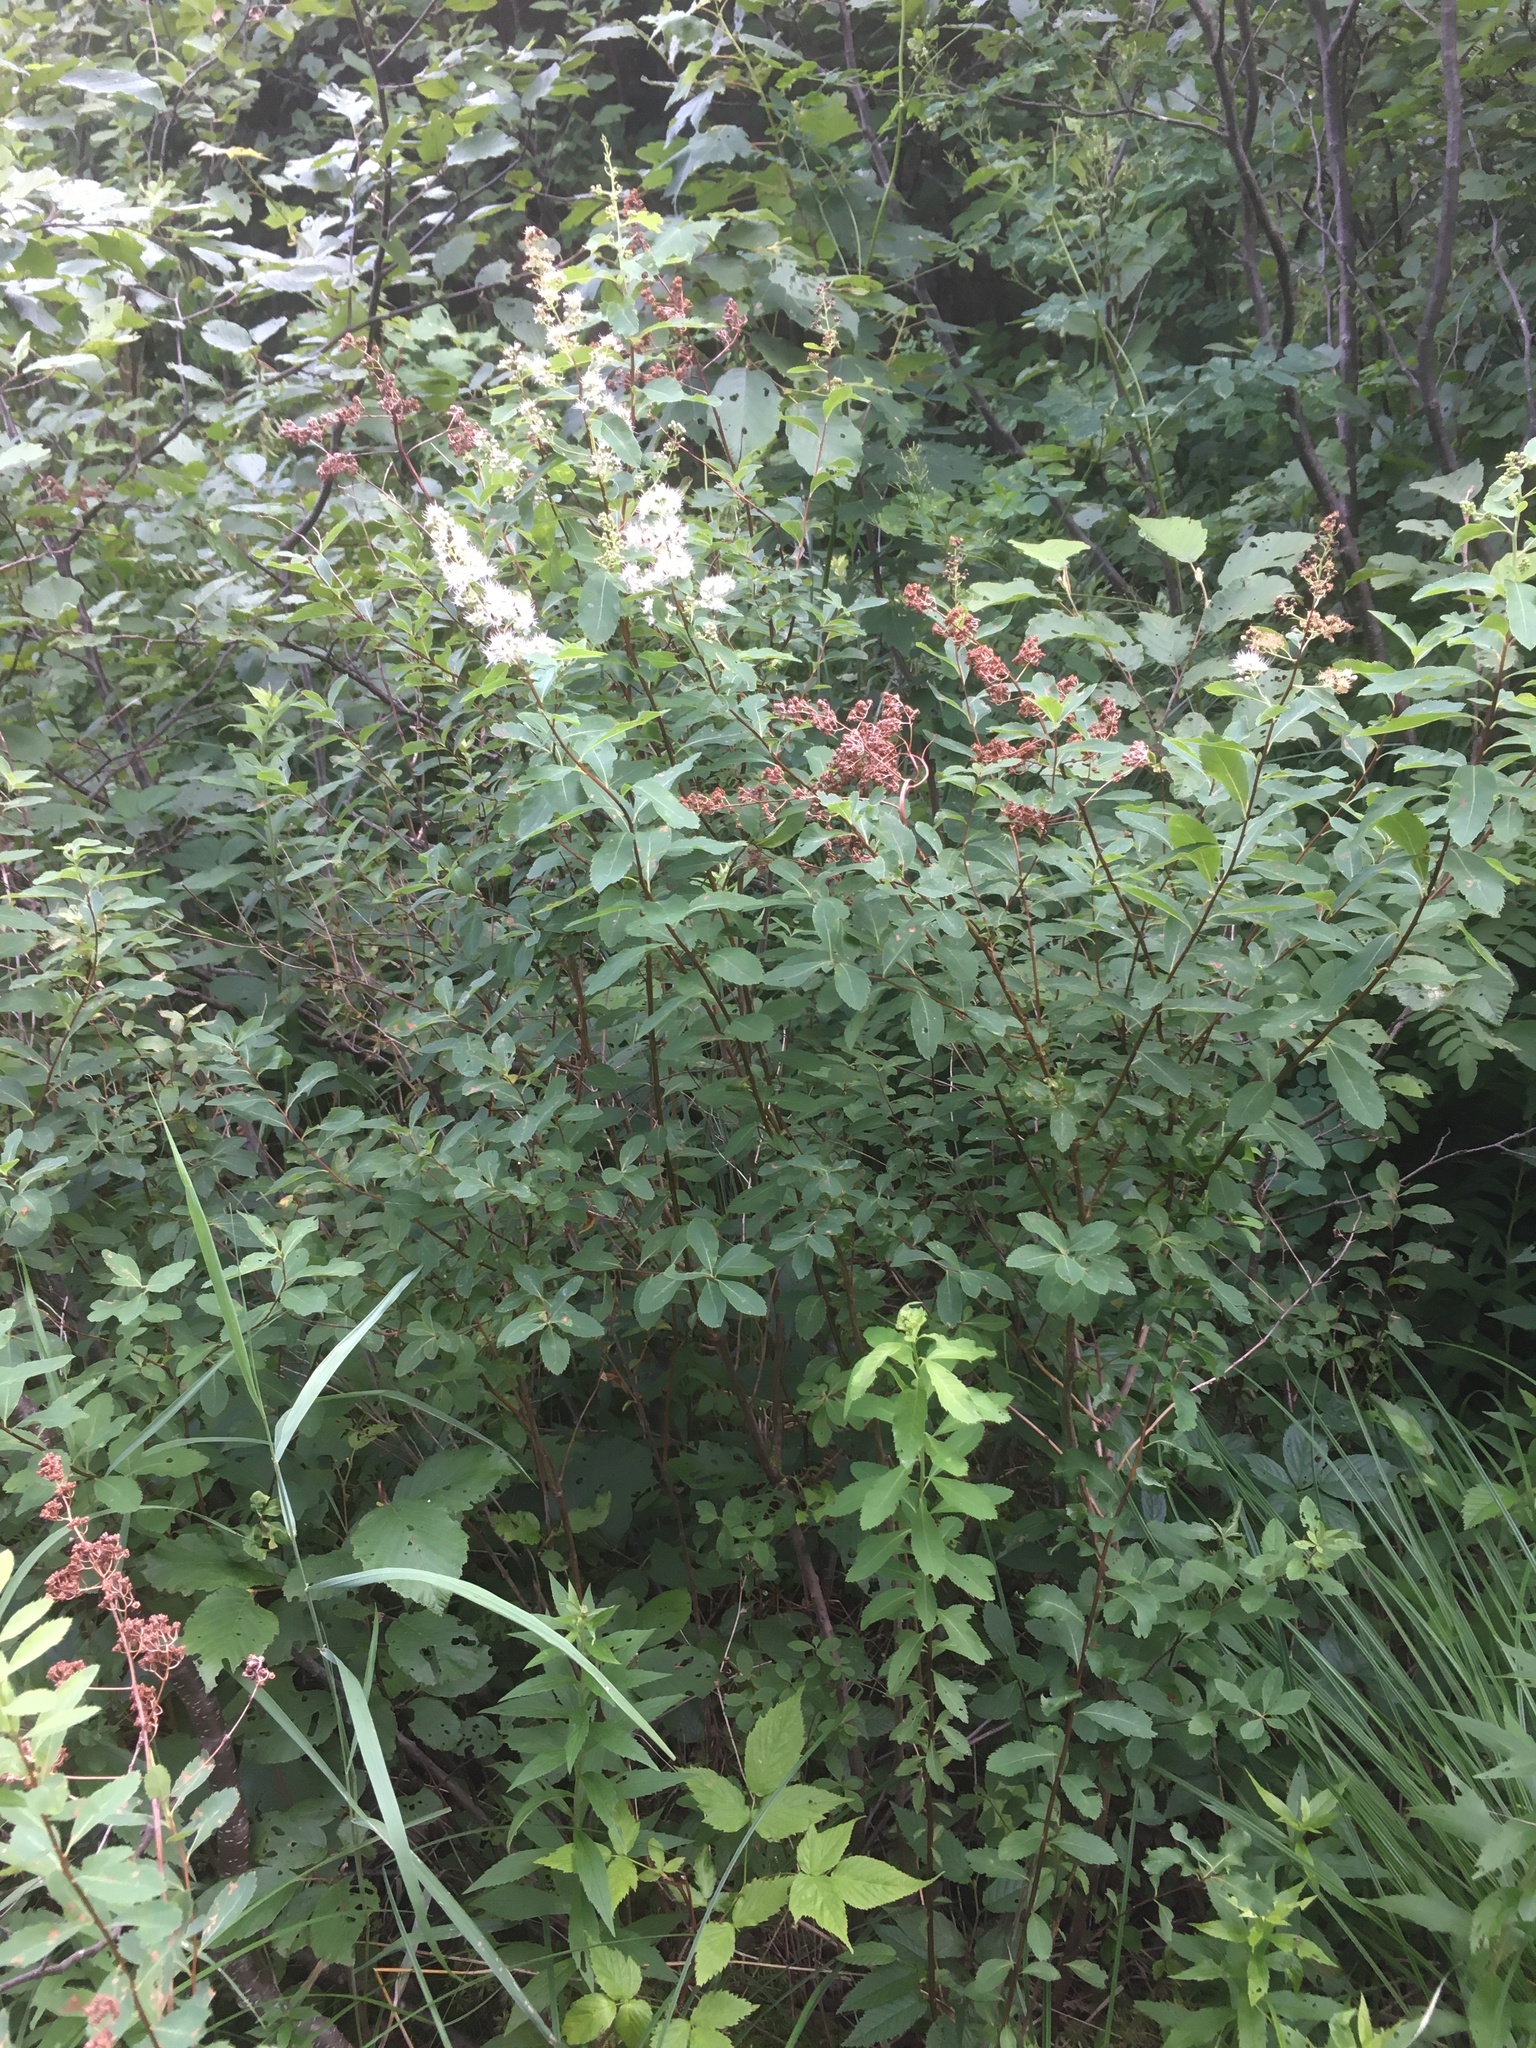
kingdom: Plantae
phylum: Tracheophyta
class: Magnoliopsida
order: Rosales
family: Rosaceae
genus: Spiraea
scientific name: Spiraea alba
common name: Pale bridewort
